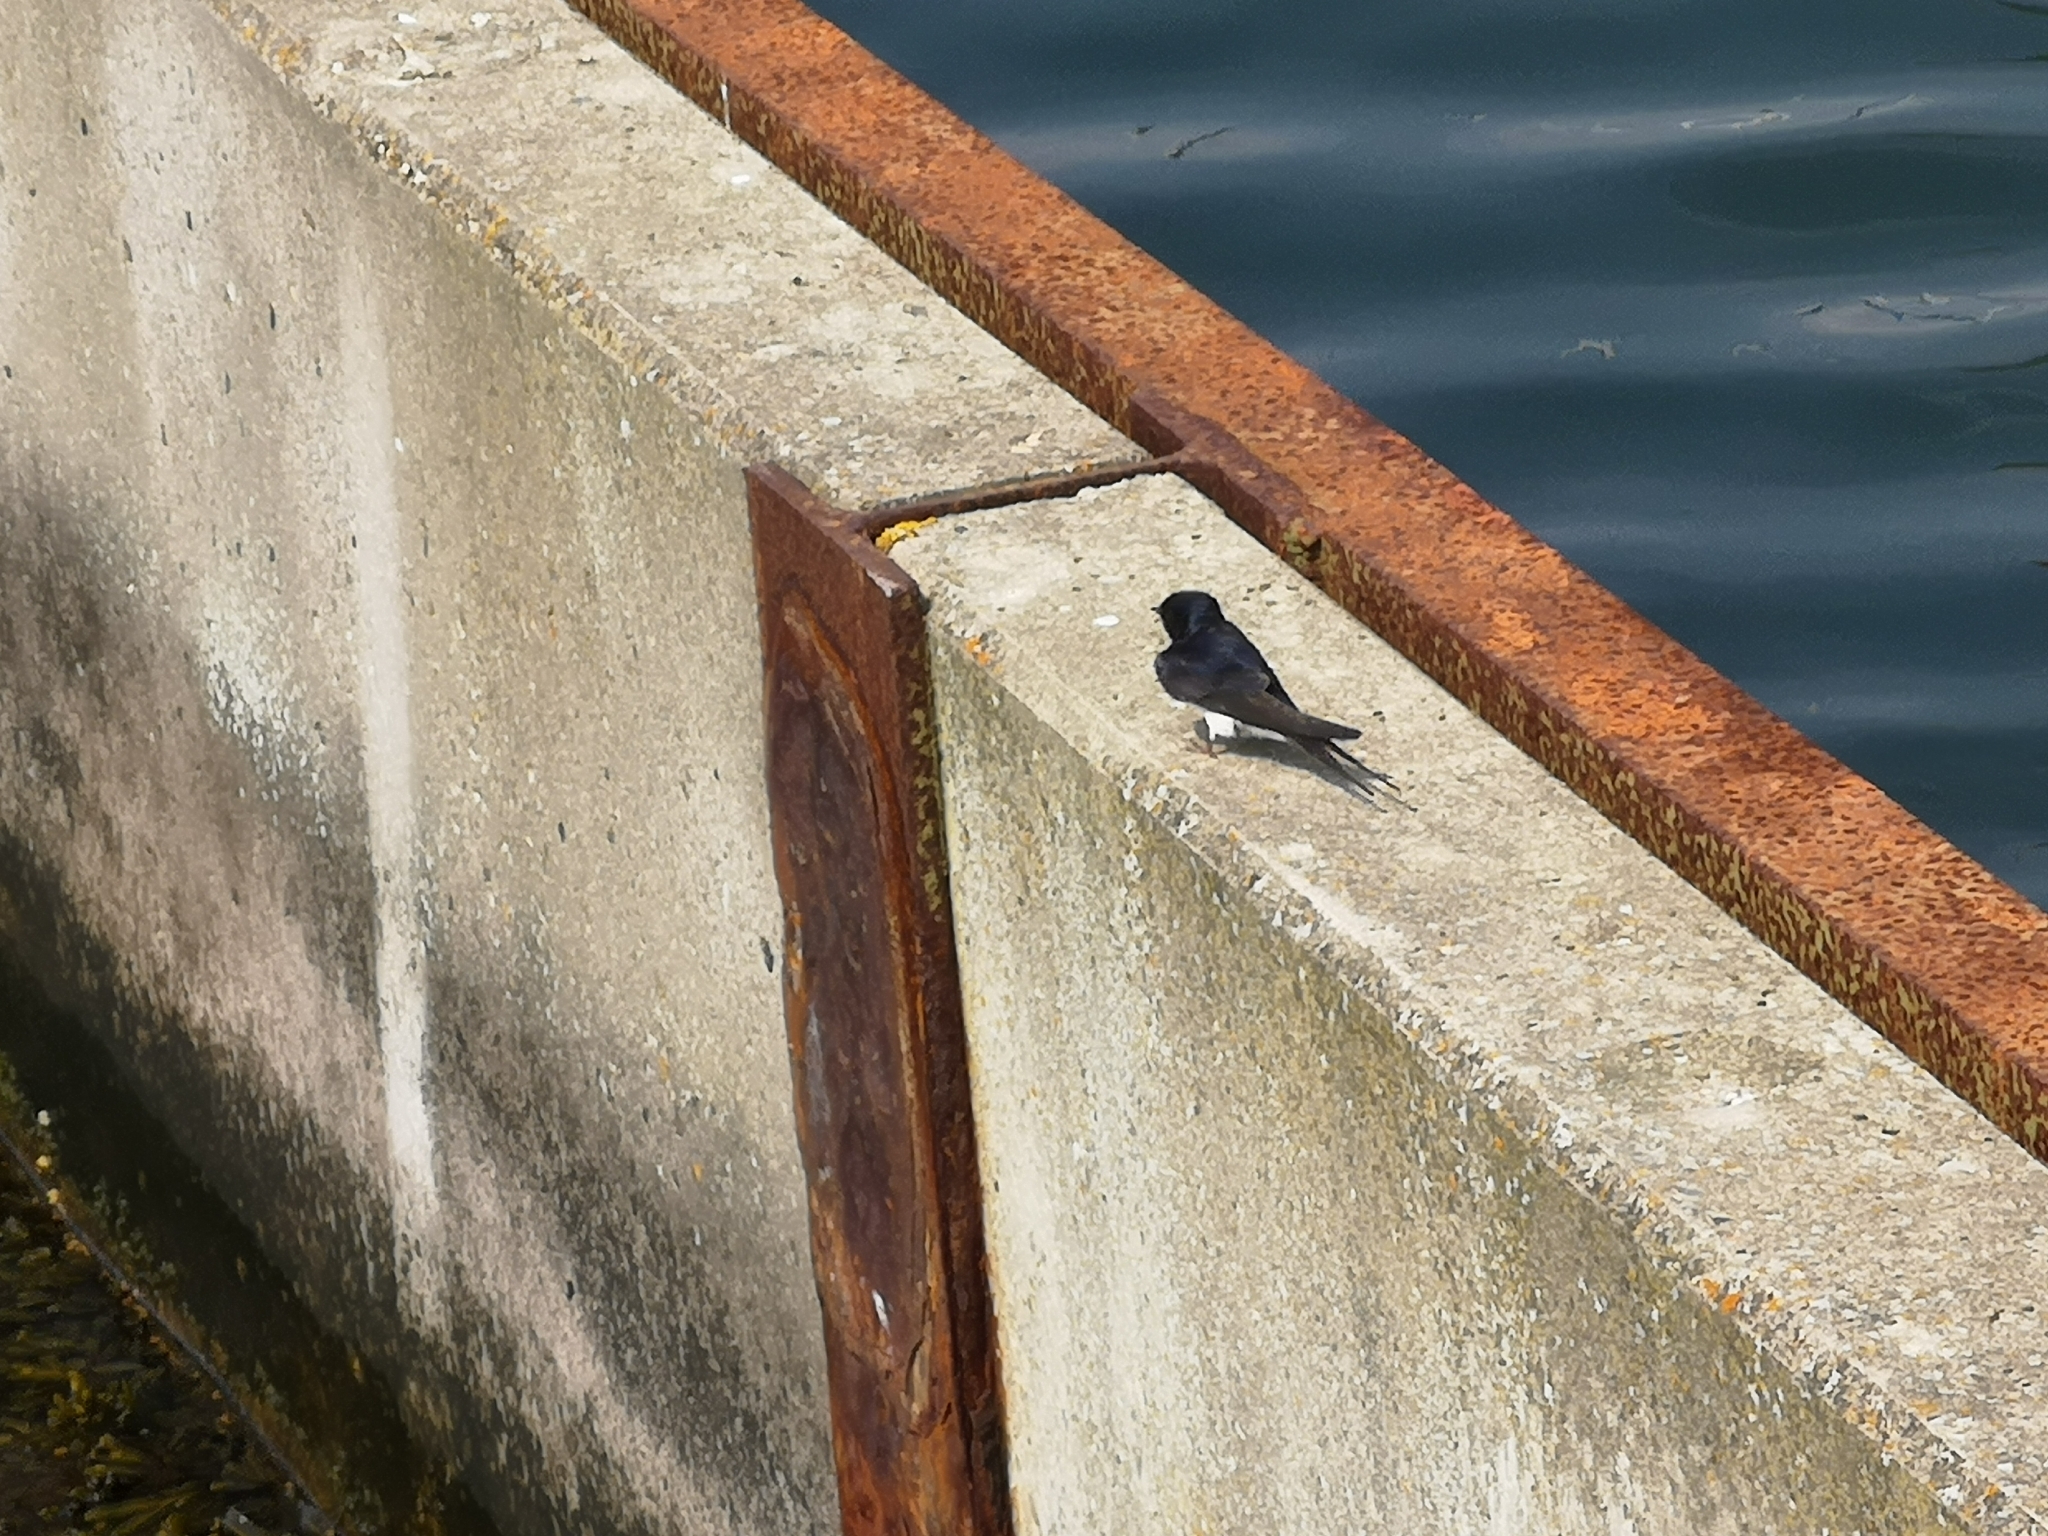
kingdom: Animalia
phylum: Chordata
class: Aves
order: Passeriformes
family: Hirundinidae
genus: Hirundo
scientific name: Hirundo rustica
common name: Barn swallow
